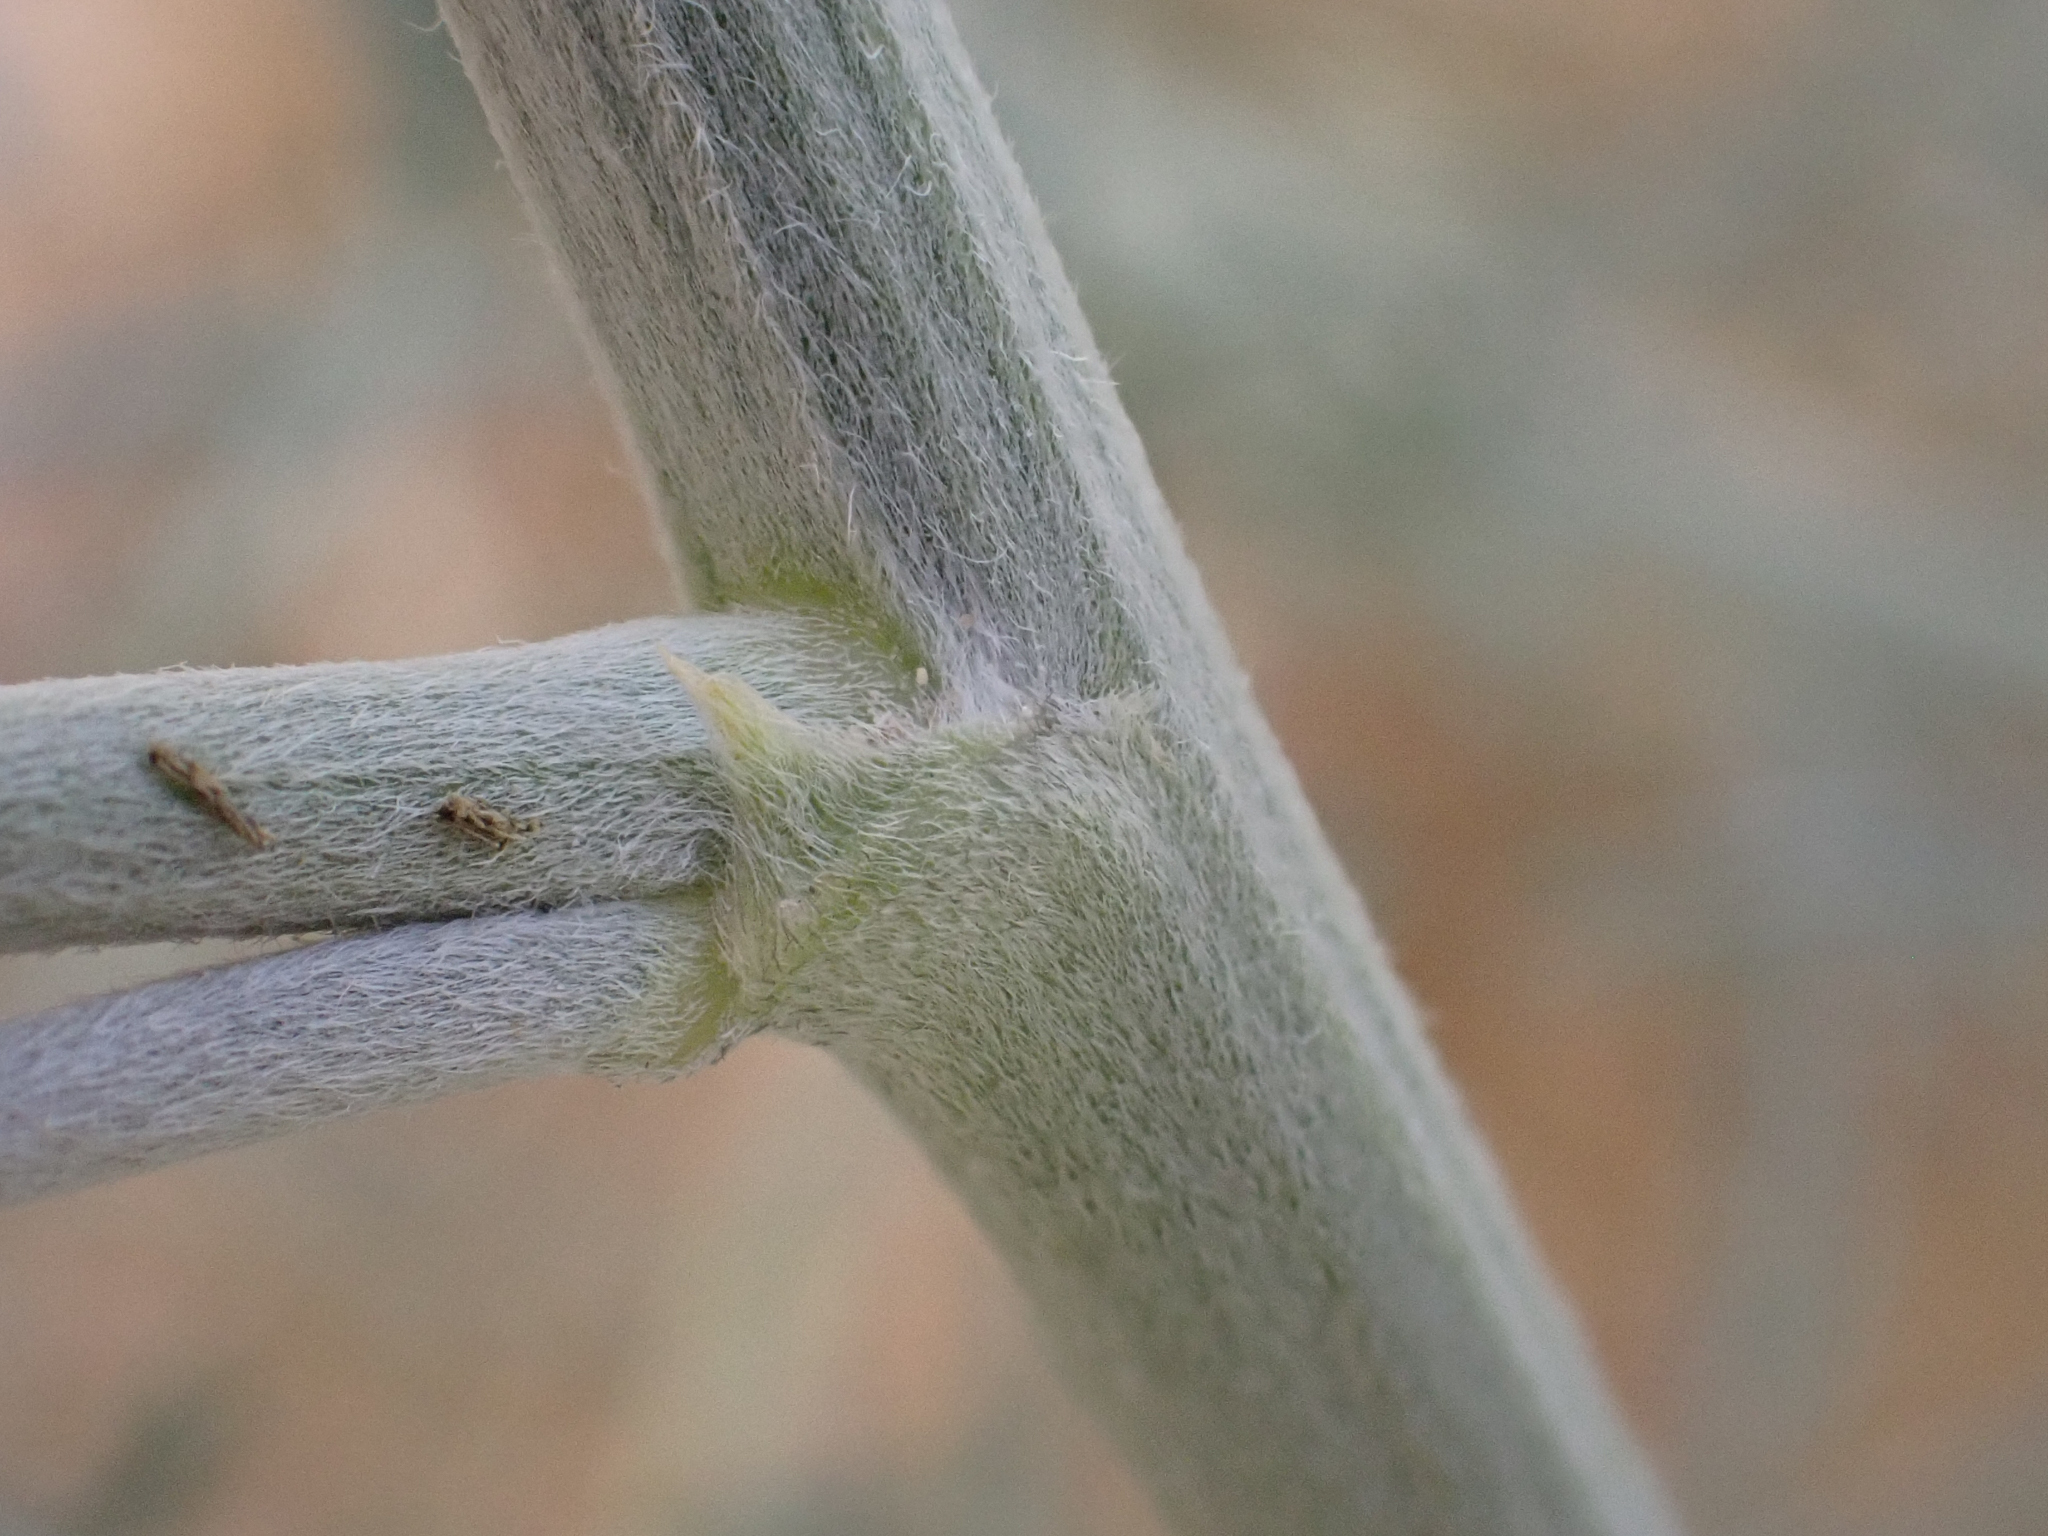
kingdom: Plantae
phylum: Tracheophyta
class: Magnoliopsida
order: Fabales
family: Fabaceae
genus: Astragalus
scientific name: Astragalus magdalenae
